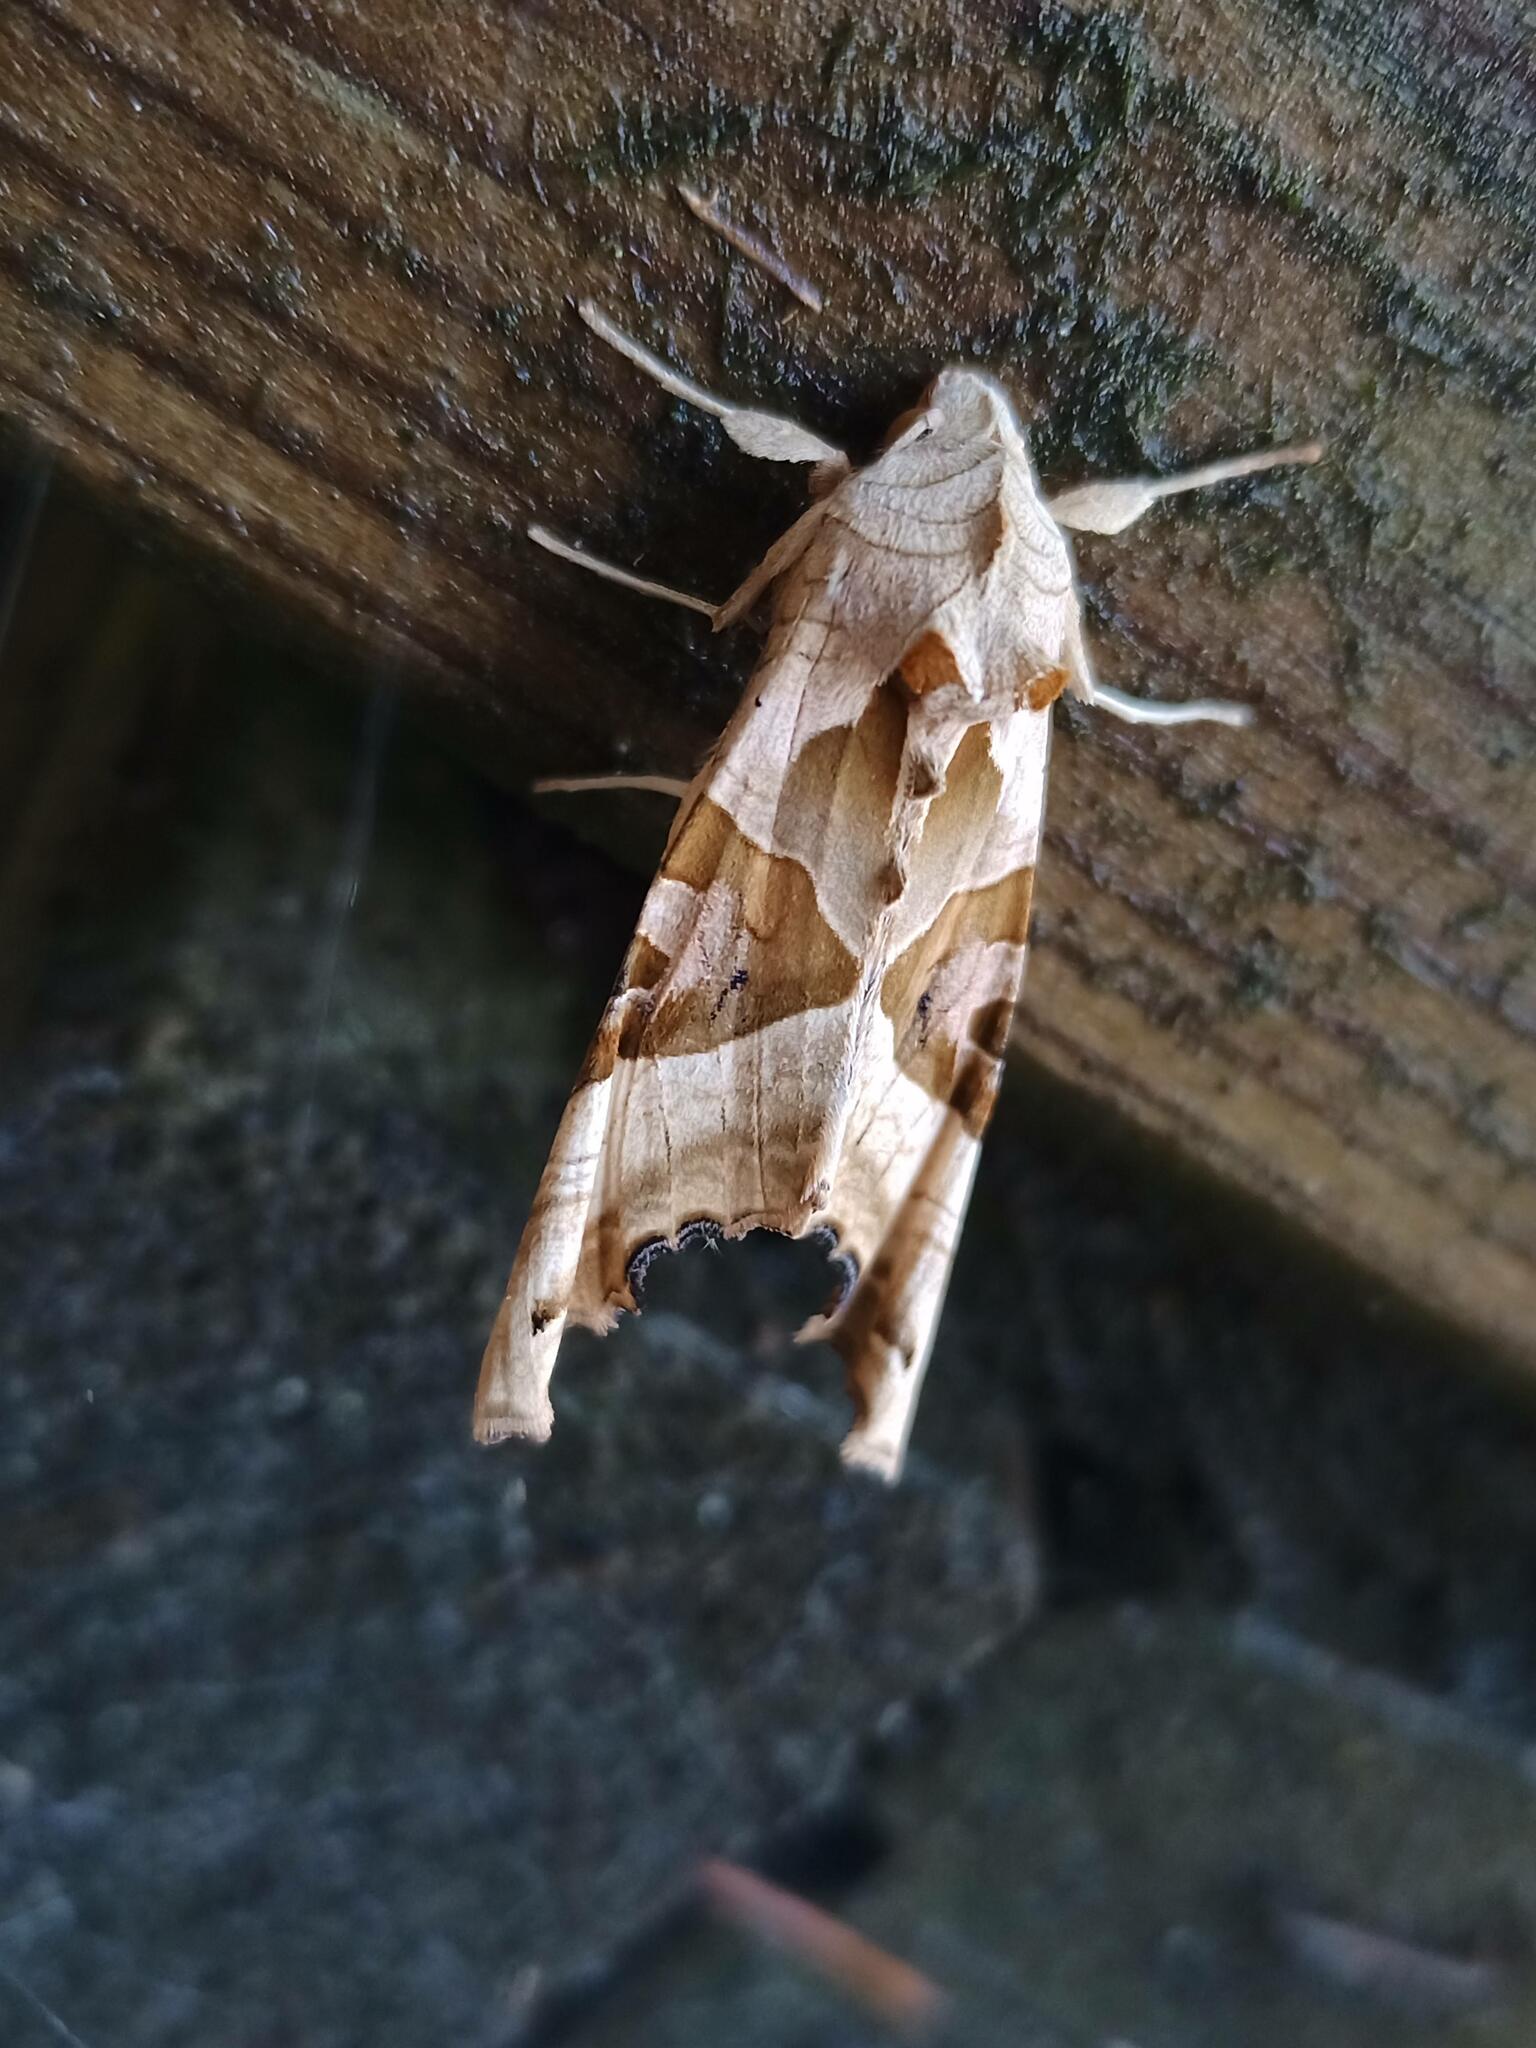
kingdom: Animalia
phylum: Arthropoda
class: Insecta
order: Lepidoptera
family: Noctuidae
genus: Phlogophora
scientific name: Phlogophora meticulosa
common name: Angle shades
